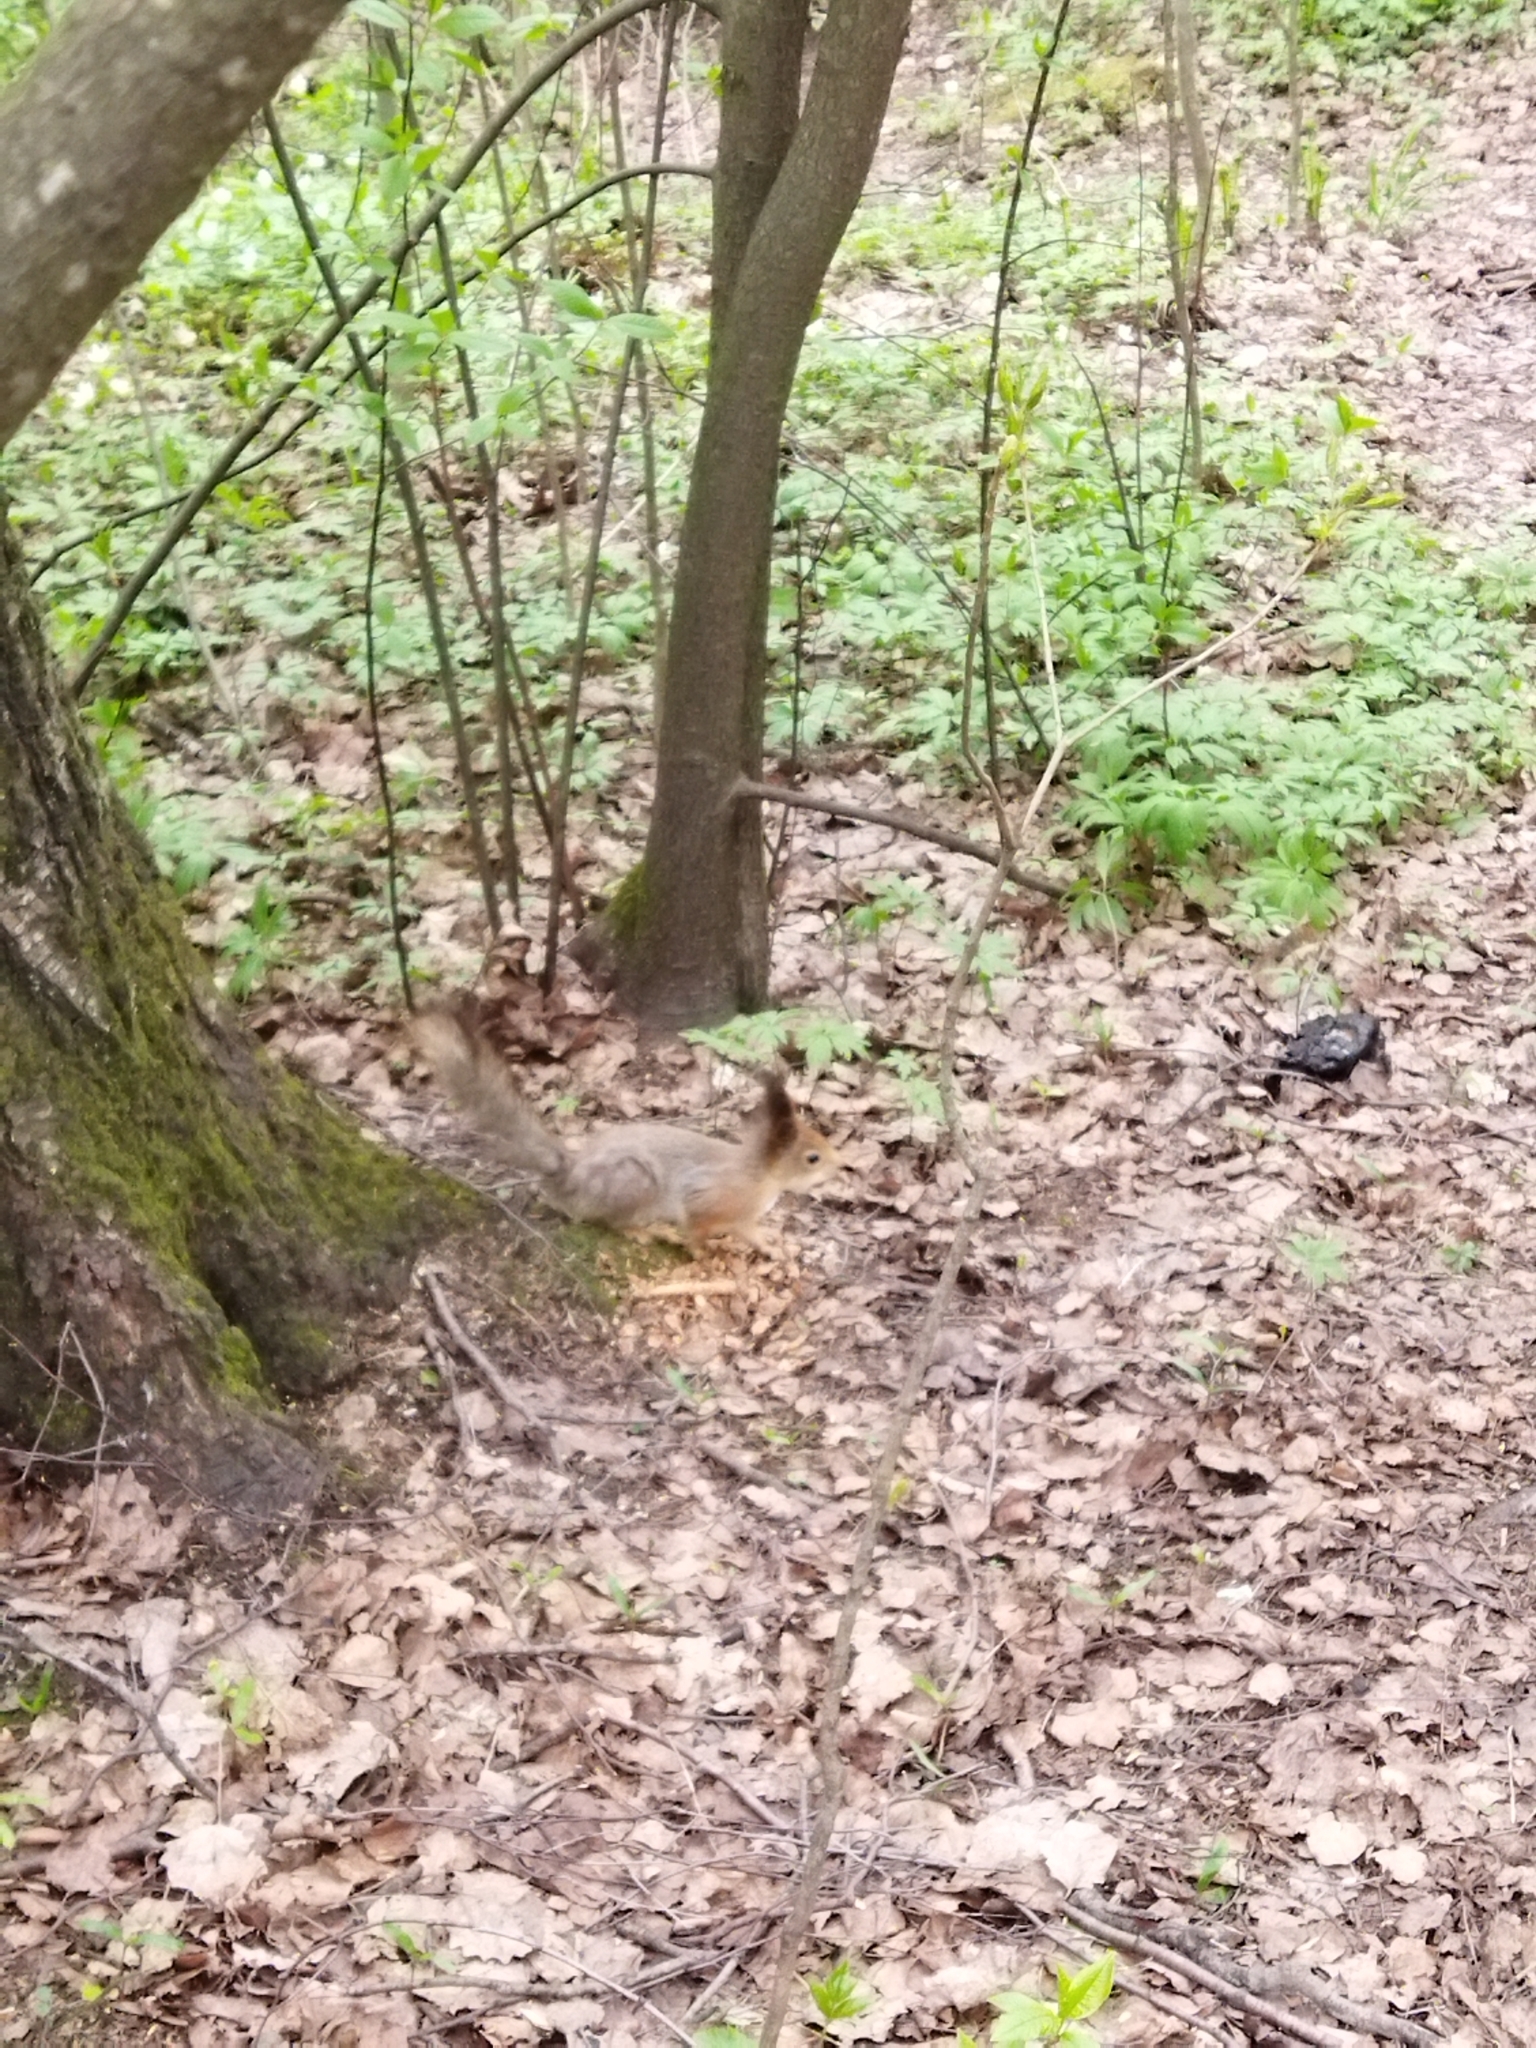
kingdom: Animalia
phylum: Chordata
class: Mammalia
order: Rodentia
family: Sciuridae
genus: Sciurus
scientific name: Sciurus vulgaris
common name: Eurasian red squirrel
